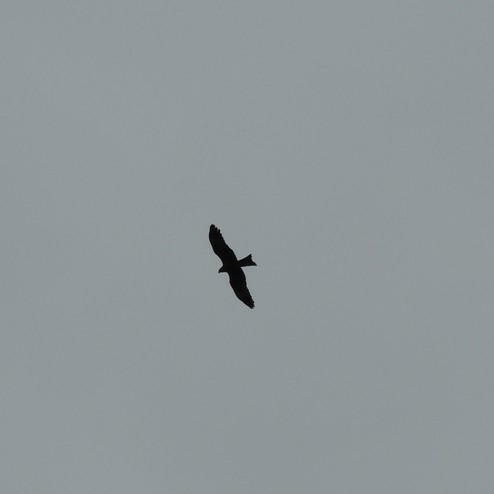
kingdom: Animalia
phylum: Chordata
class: Aves
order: Accipitriformes
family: Accipitridae
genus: Milvus
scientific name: Milvus migrans
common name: Black kite
